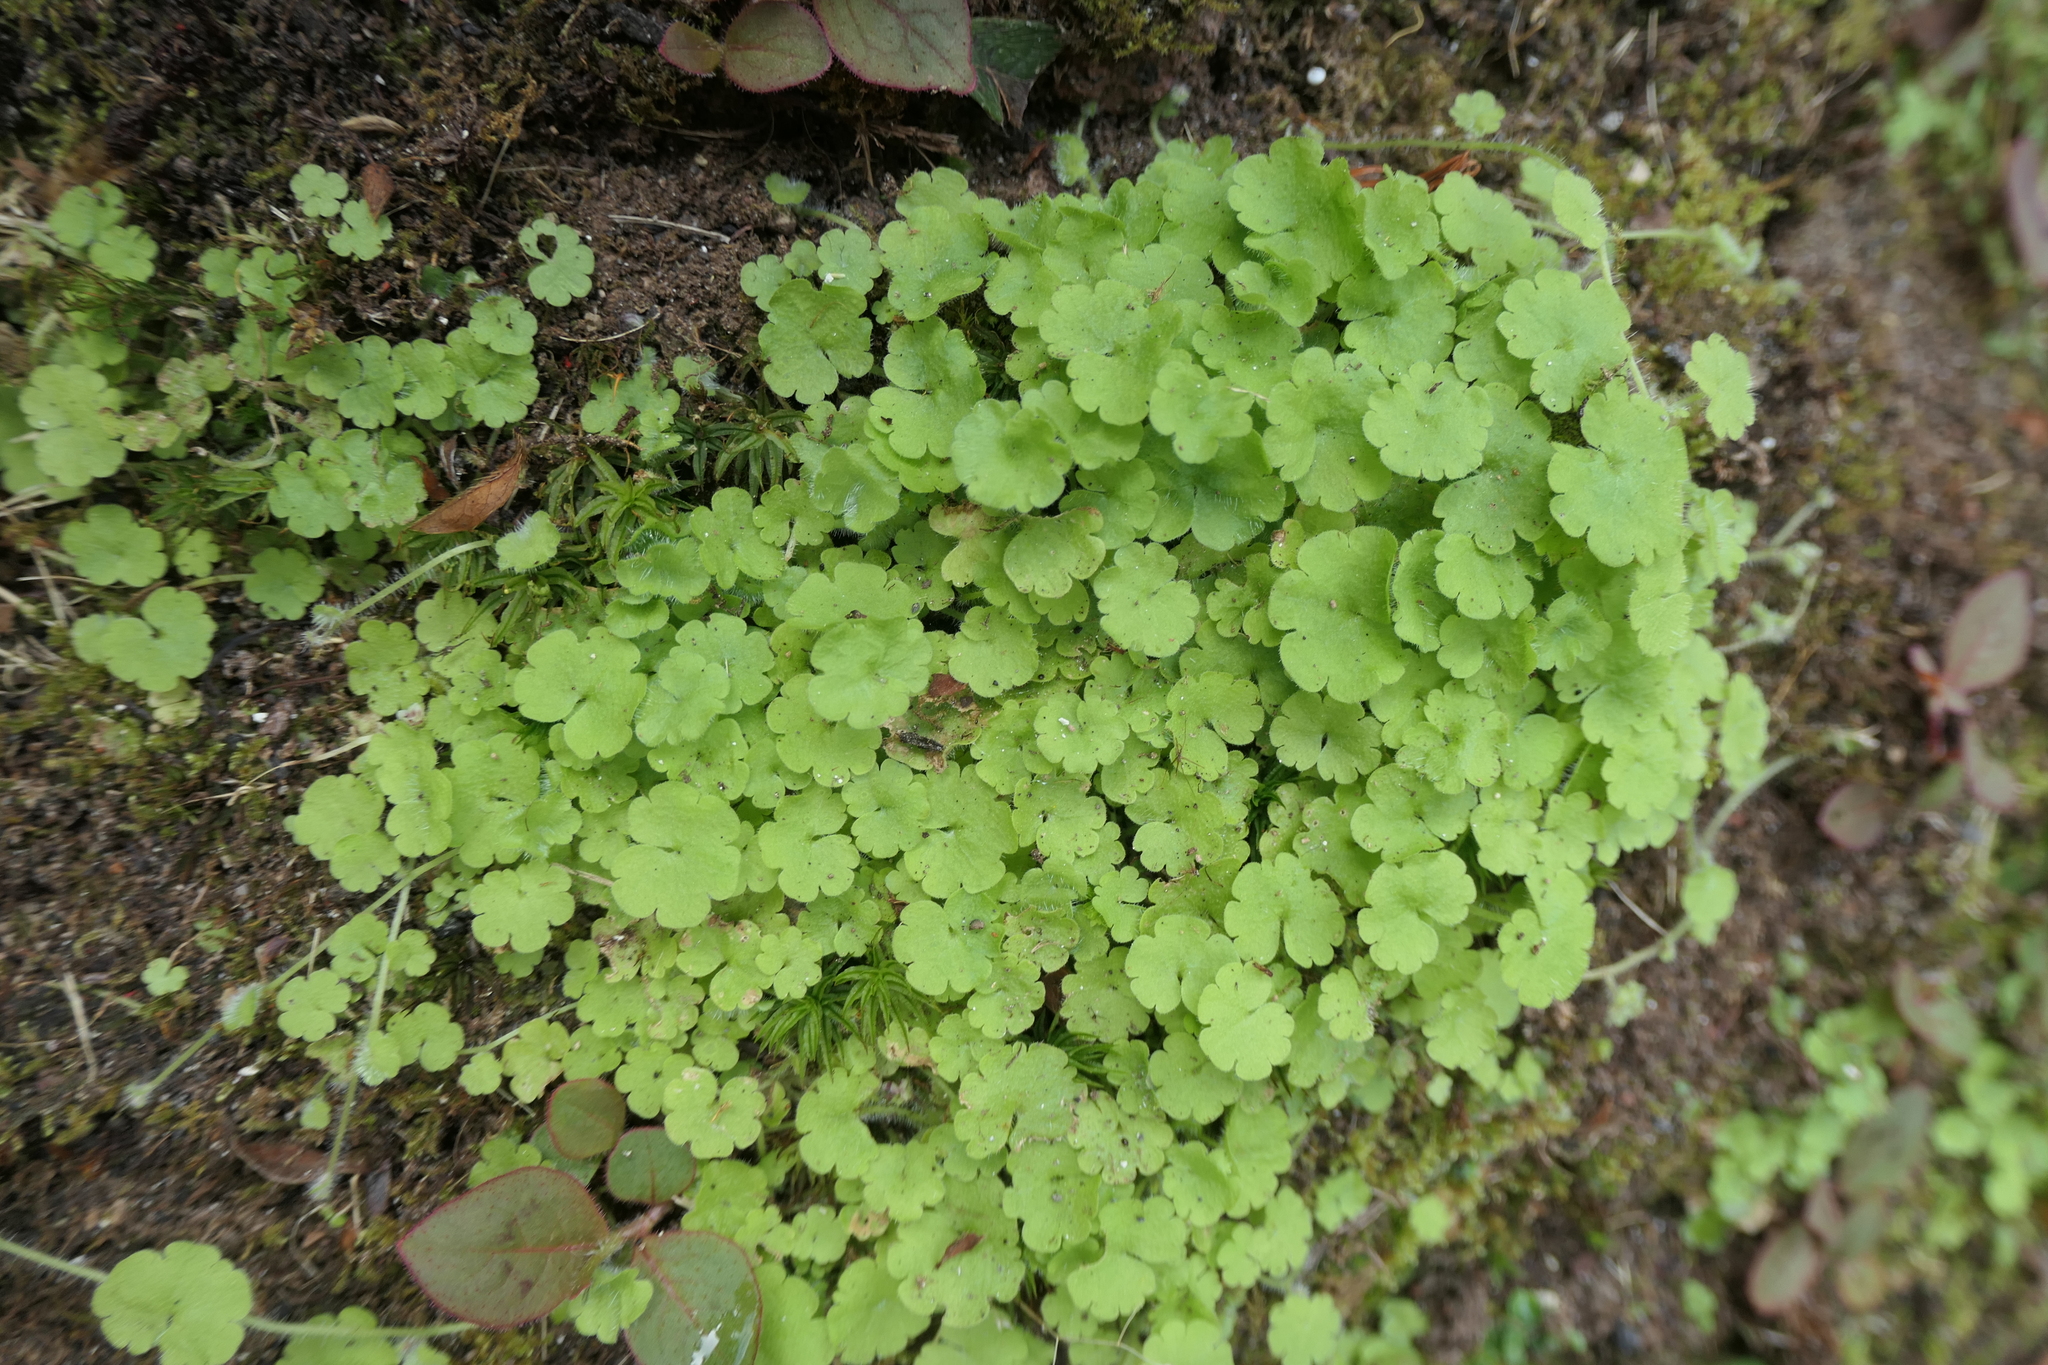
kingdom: Plantae
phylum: Tracheophyta
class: Magnoliopsida
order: Lamiales
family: Plantaginaceae
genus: Sibthorpia
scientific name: Sibthorpia europaea
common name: Cornish moneywort
